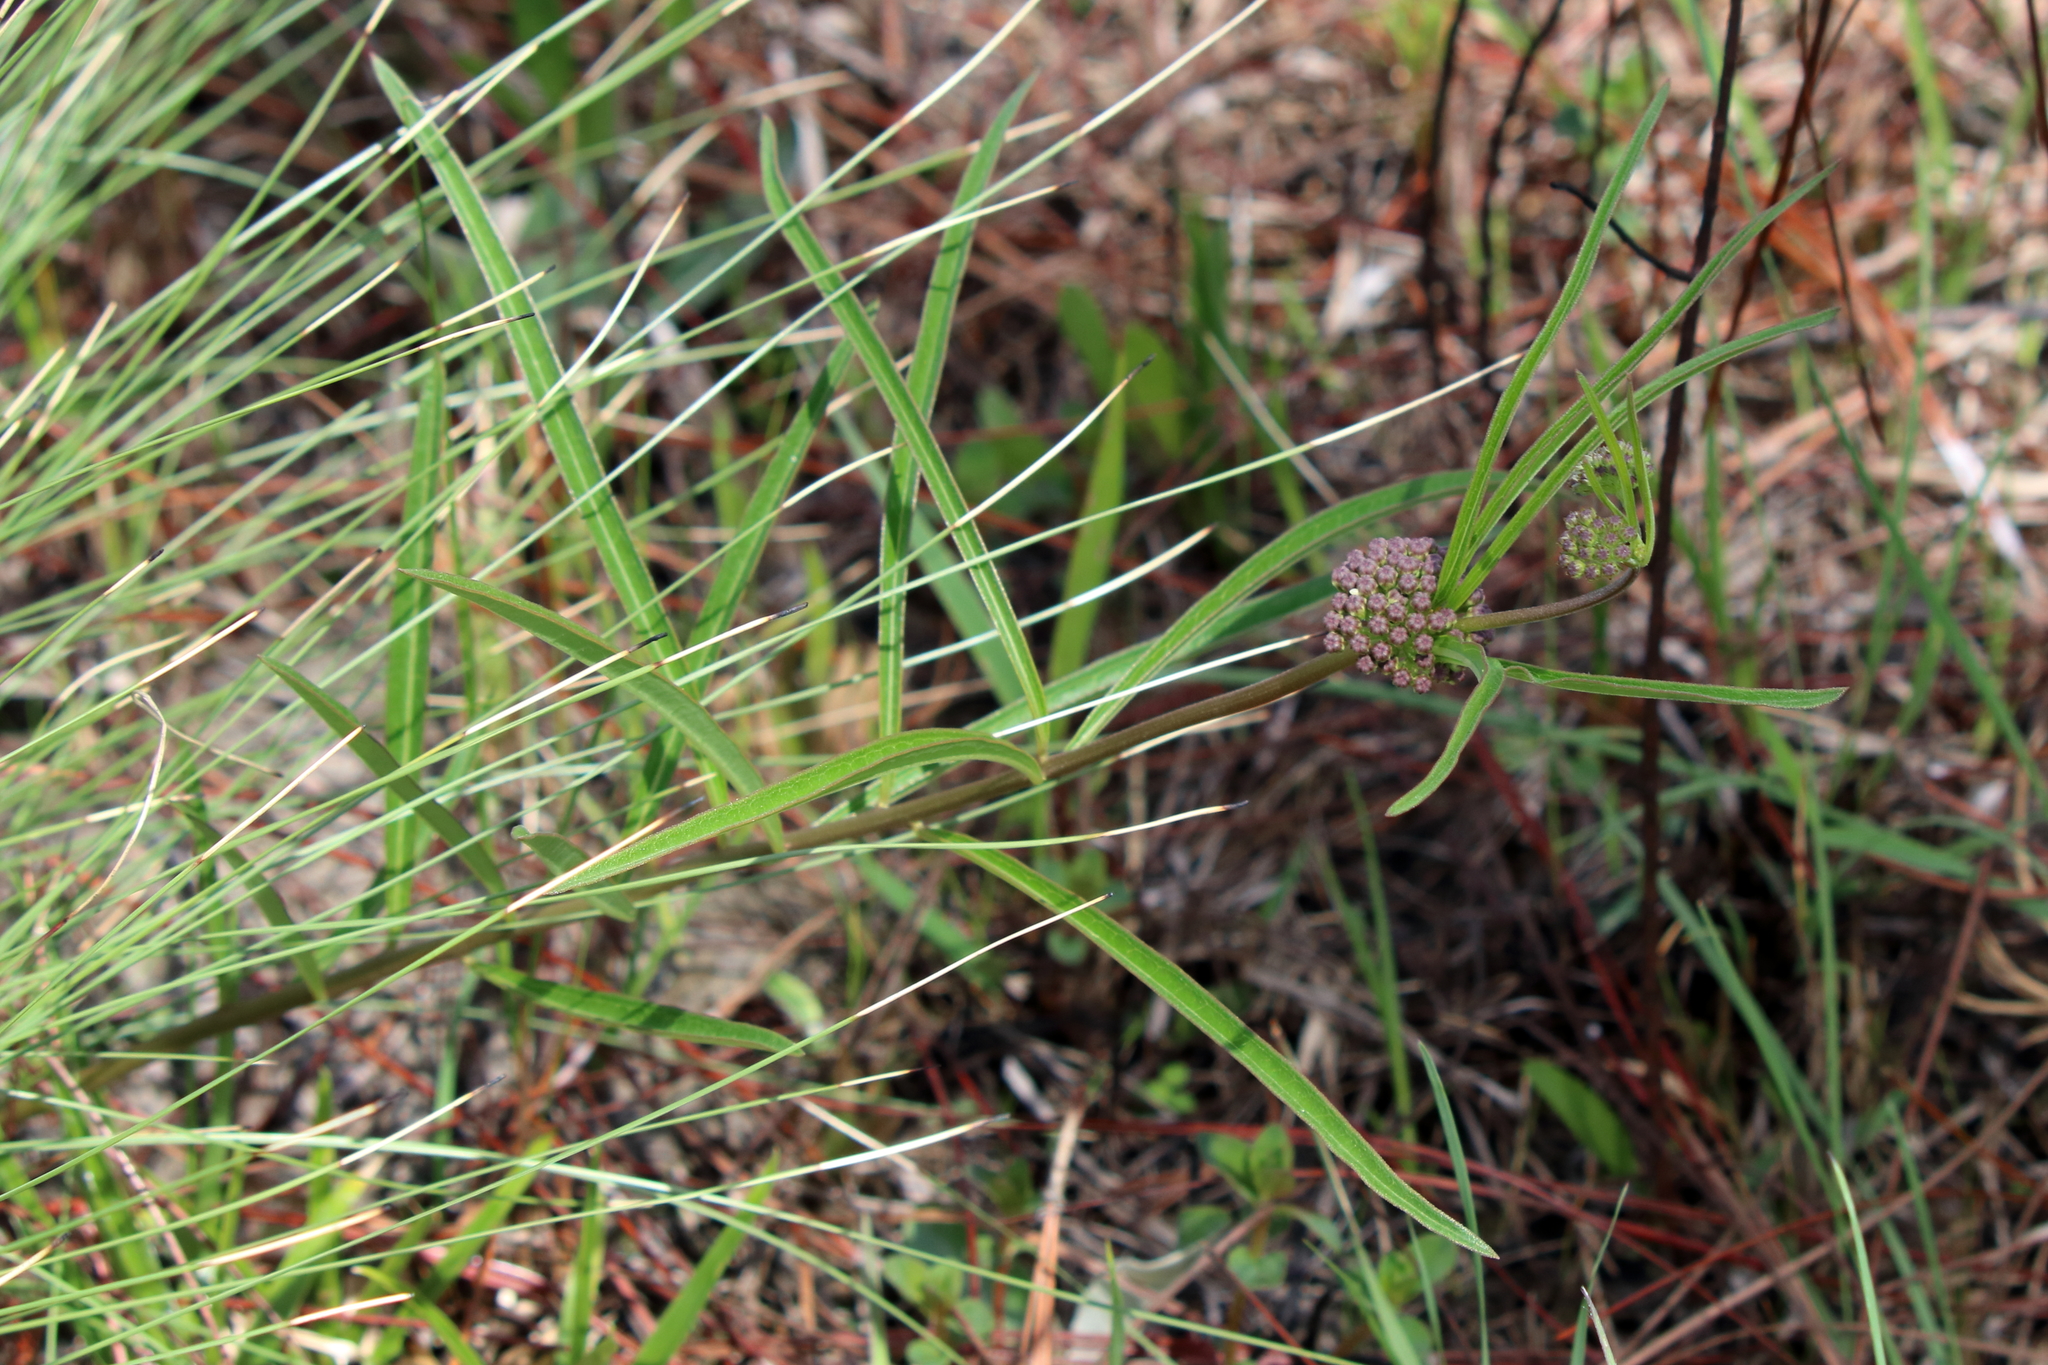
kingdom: Plantae
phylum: Tracheophyta
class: Magnoliopsida
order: Gentianales
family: Apocynaceae
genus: Asclepias
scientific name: Asclepias longifolia
